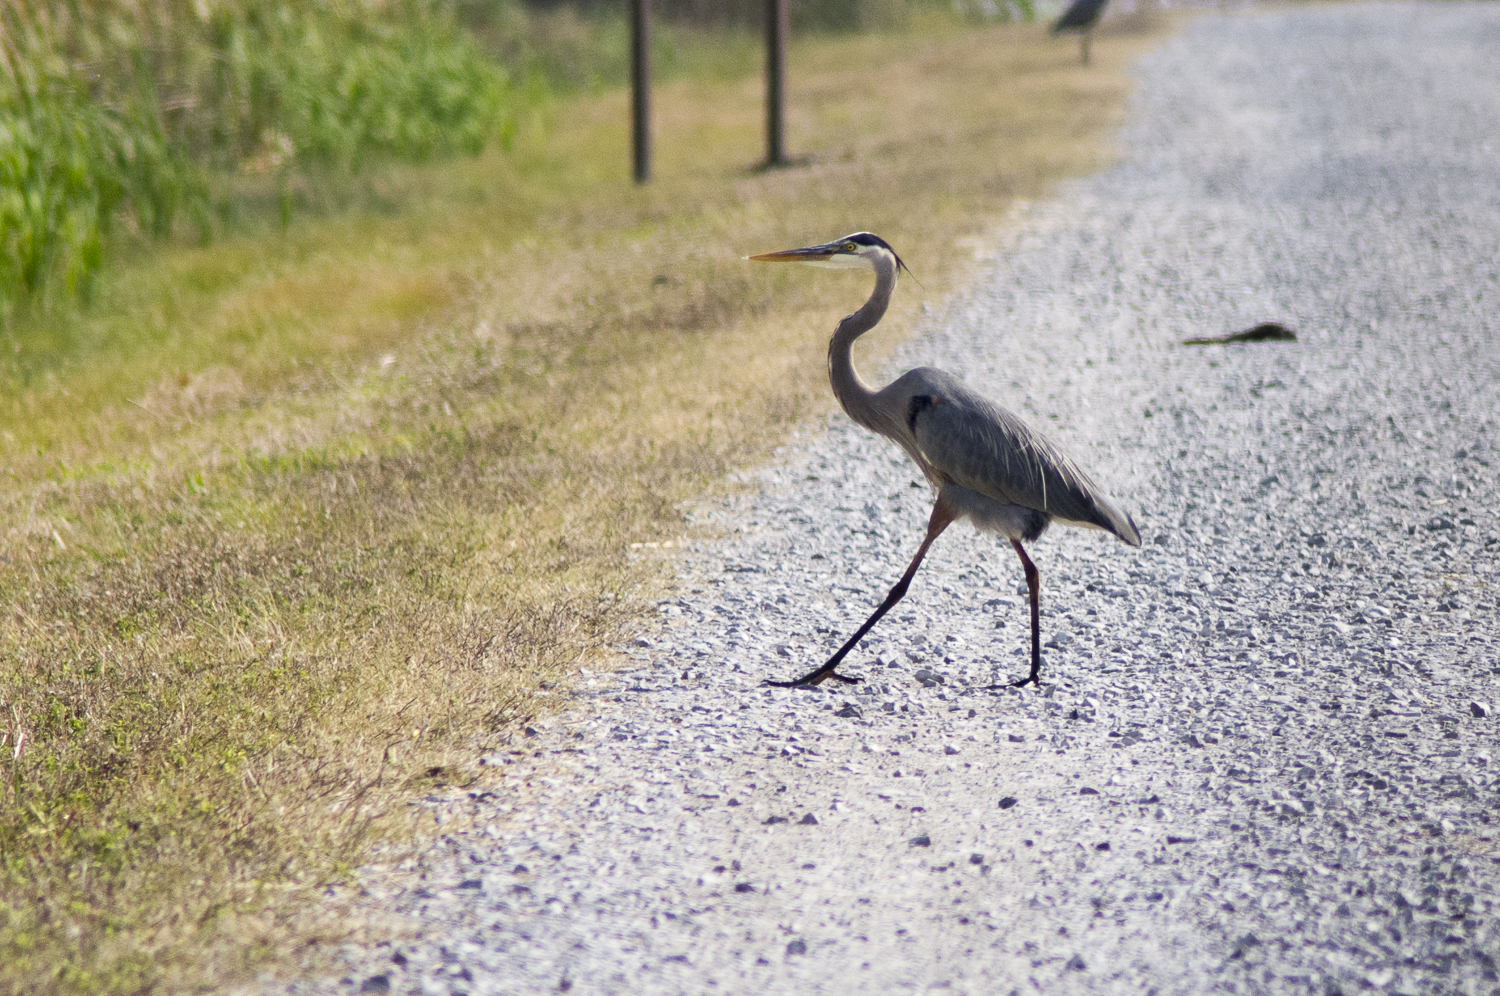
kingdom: Animalia
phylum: Chordata
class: Aves
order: Pelecaniformes
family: Ardeidae
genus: Ardea
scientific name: Ardea herodias
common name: Great blue heron
